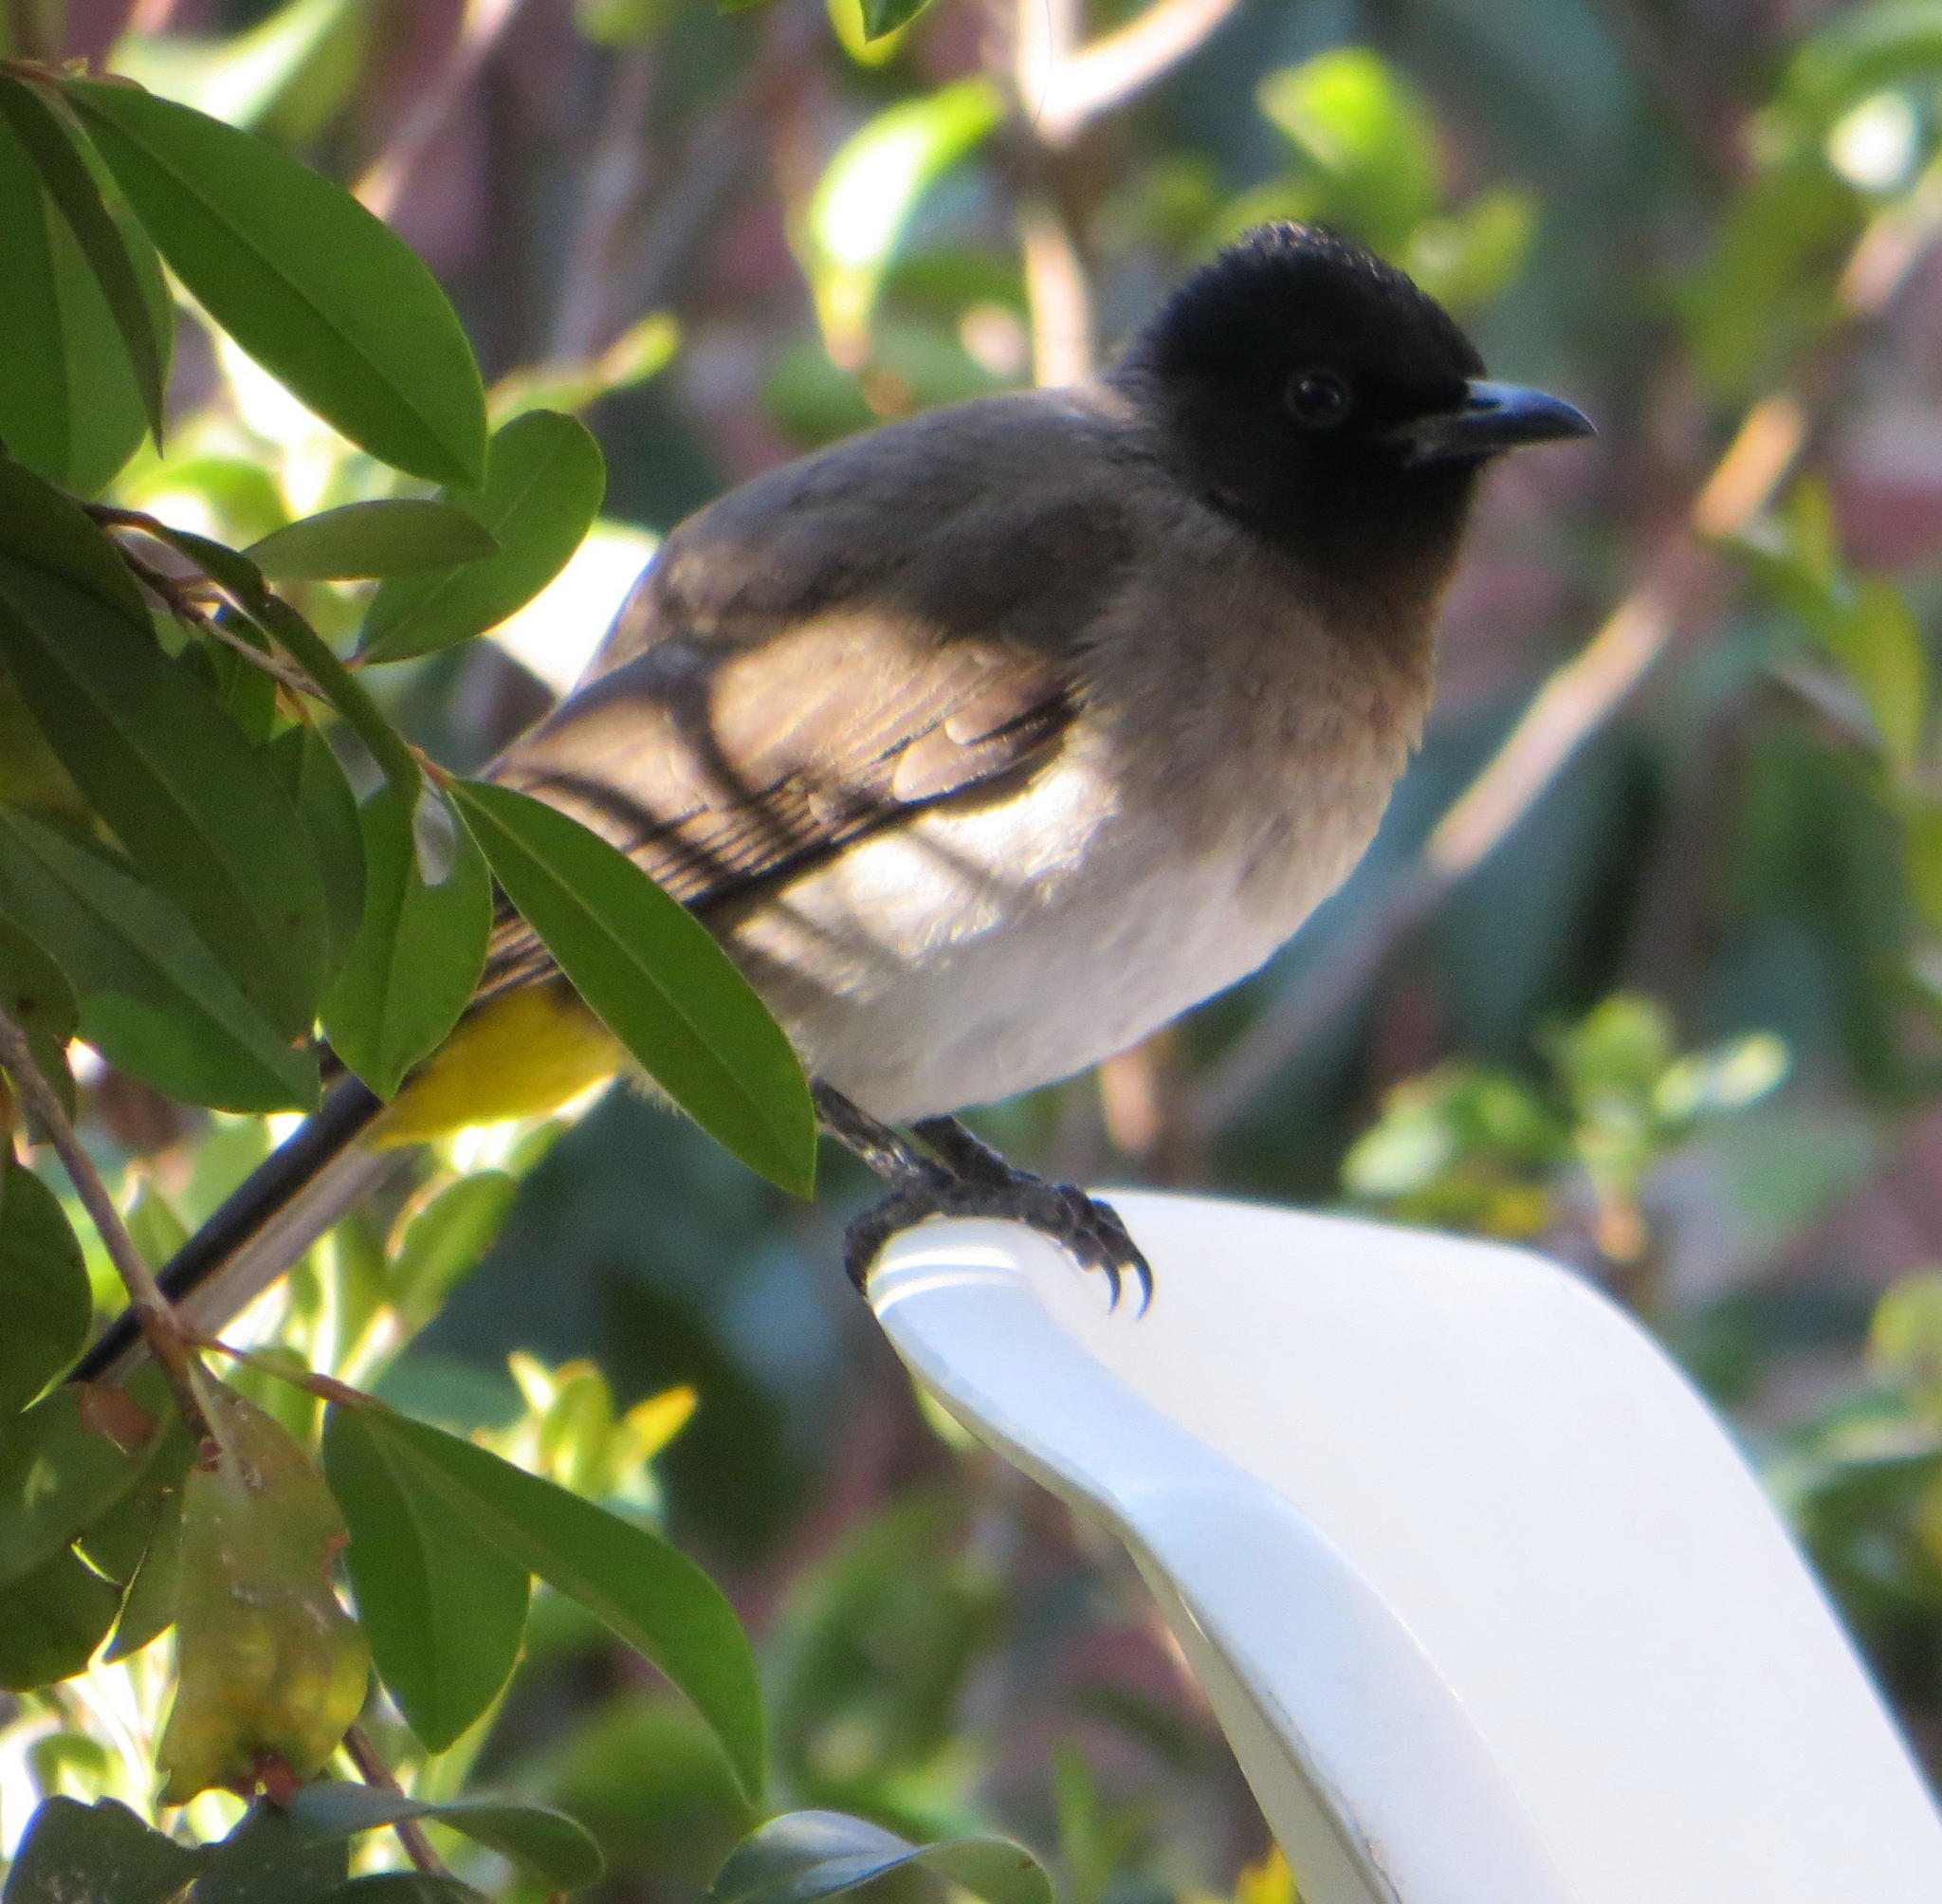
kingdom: Animalia
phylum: Chordata
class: Aves
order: Passeriformes
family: Pycnonotidae
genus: Pycnonotus
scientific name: Pycnonotus barbatus
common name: Common bulbul
